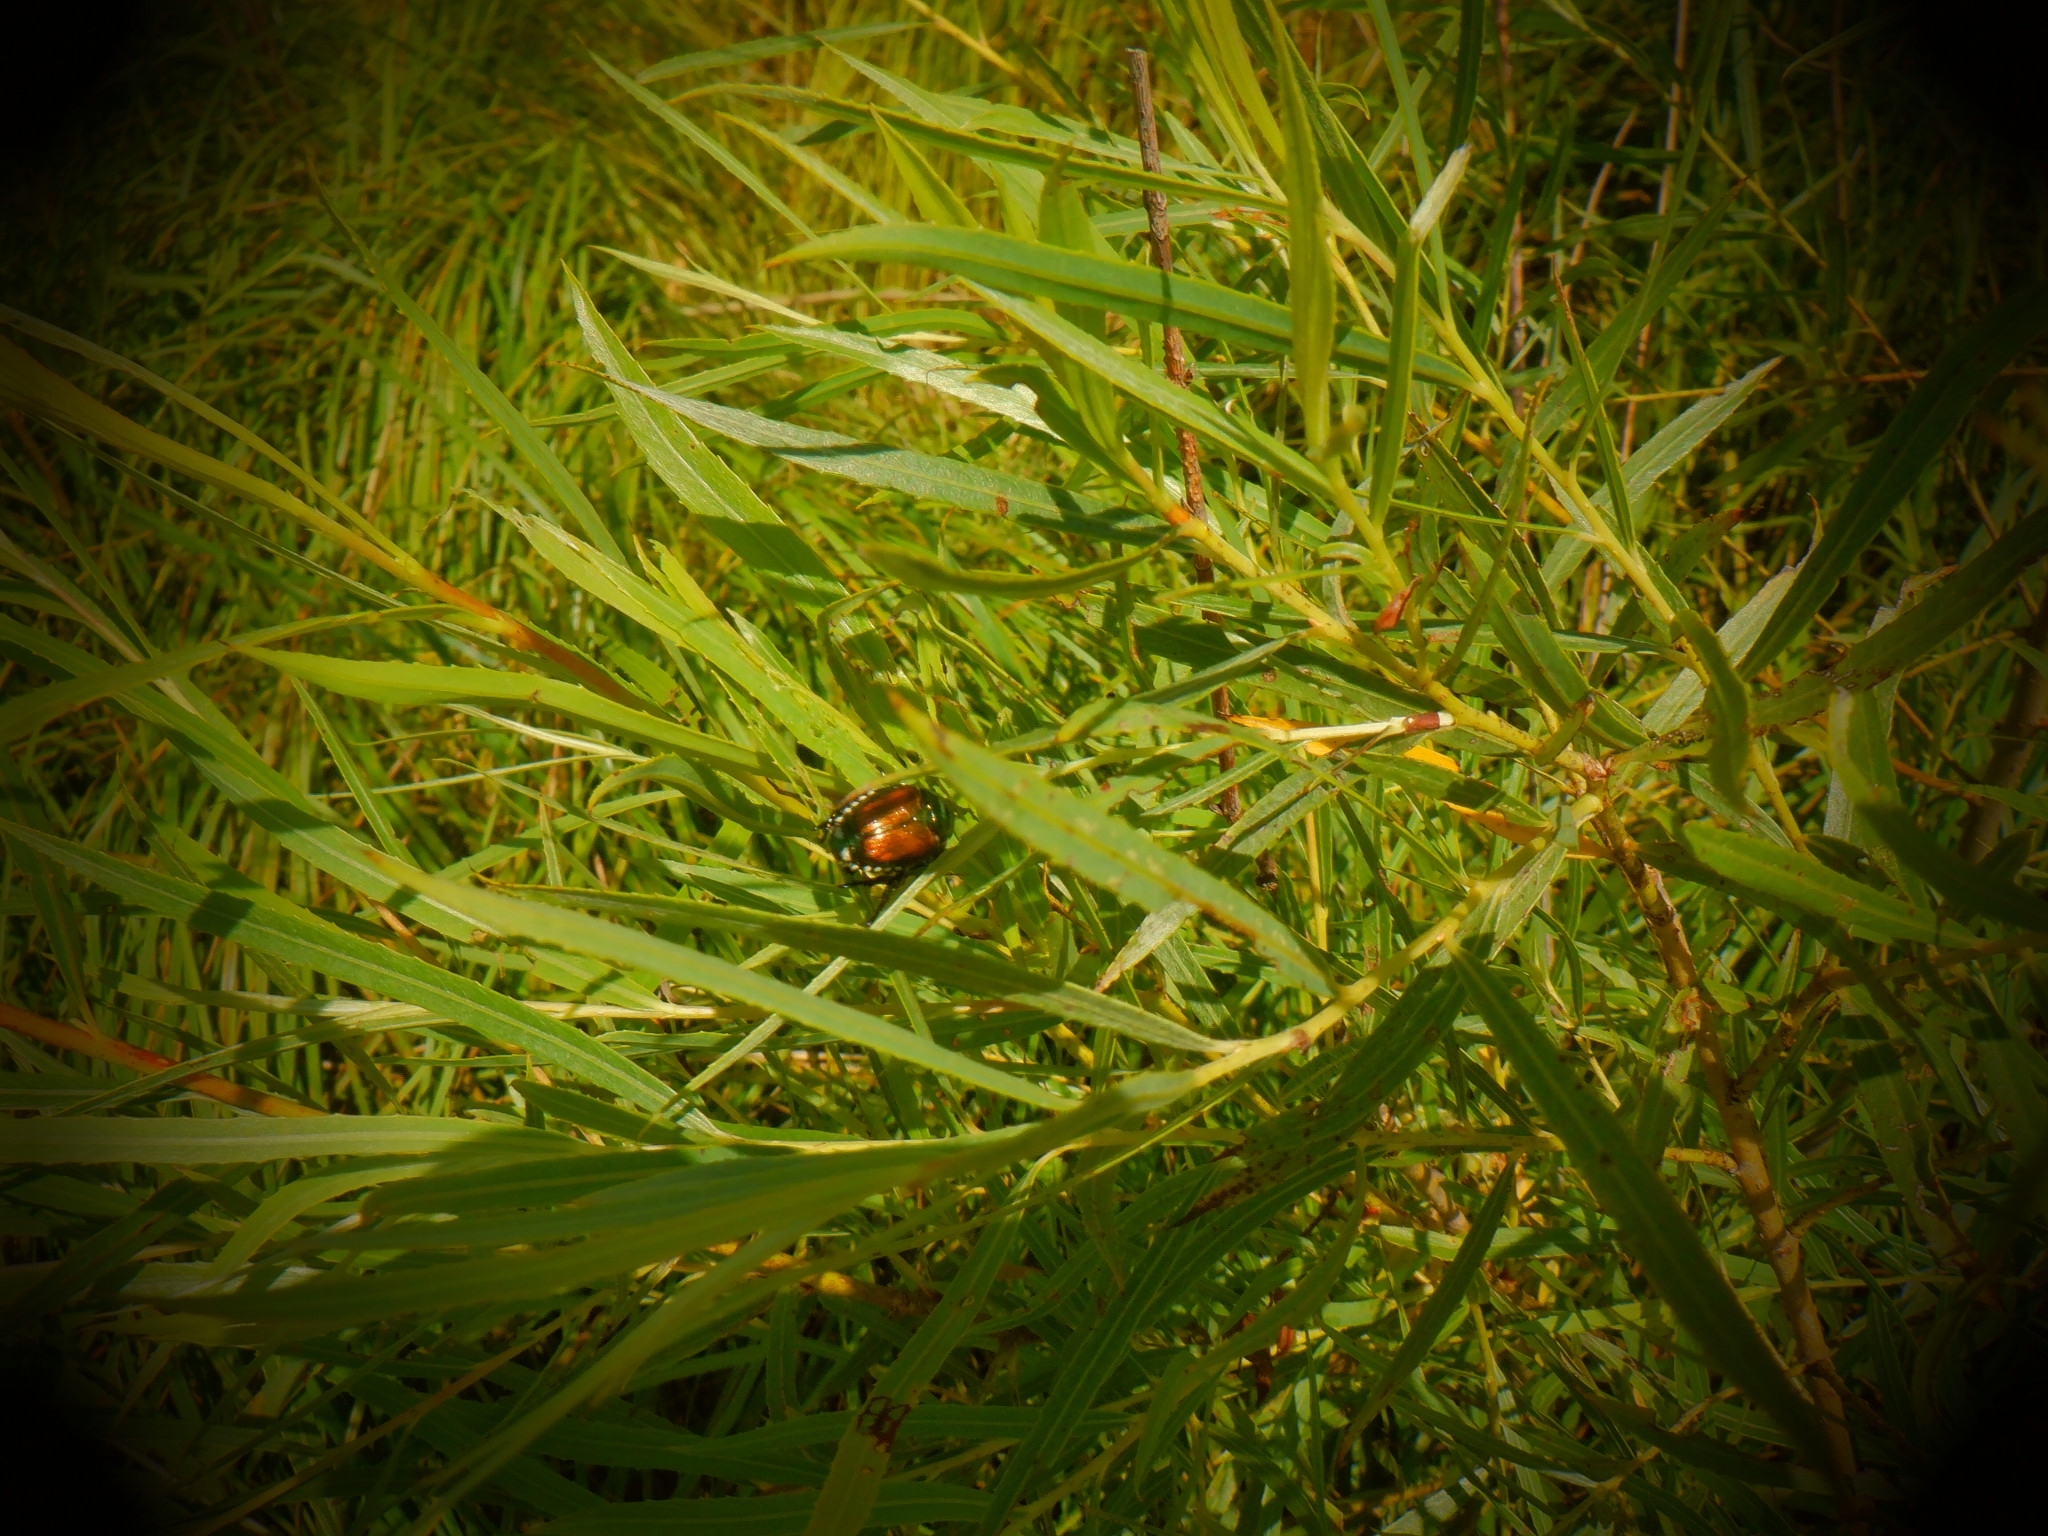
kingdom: Animalia
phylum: Arthropoda
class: Insecta
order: Coleoptera
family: Scarabaeidae
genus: Popillia
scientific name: Popillia japonica
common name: Japanese beetle
